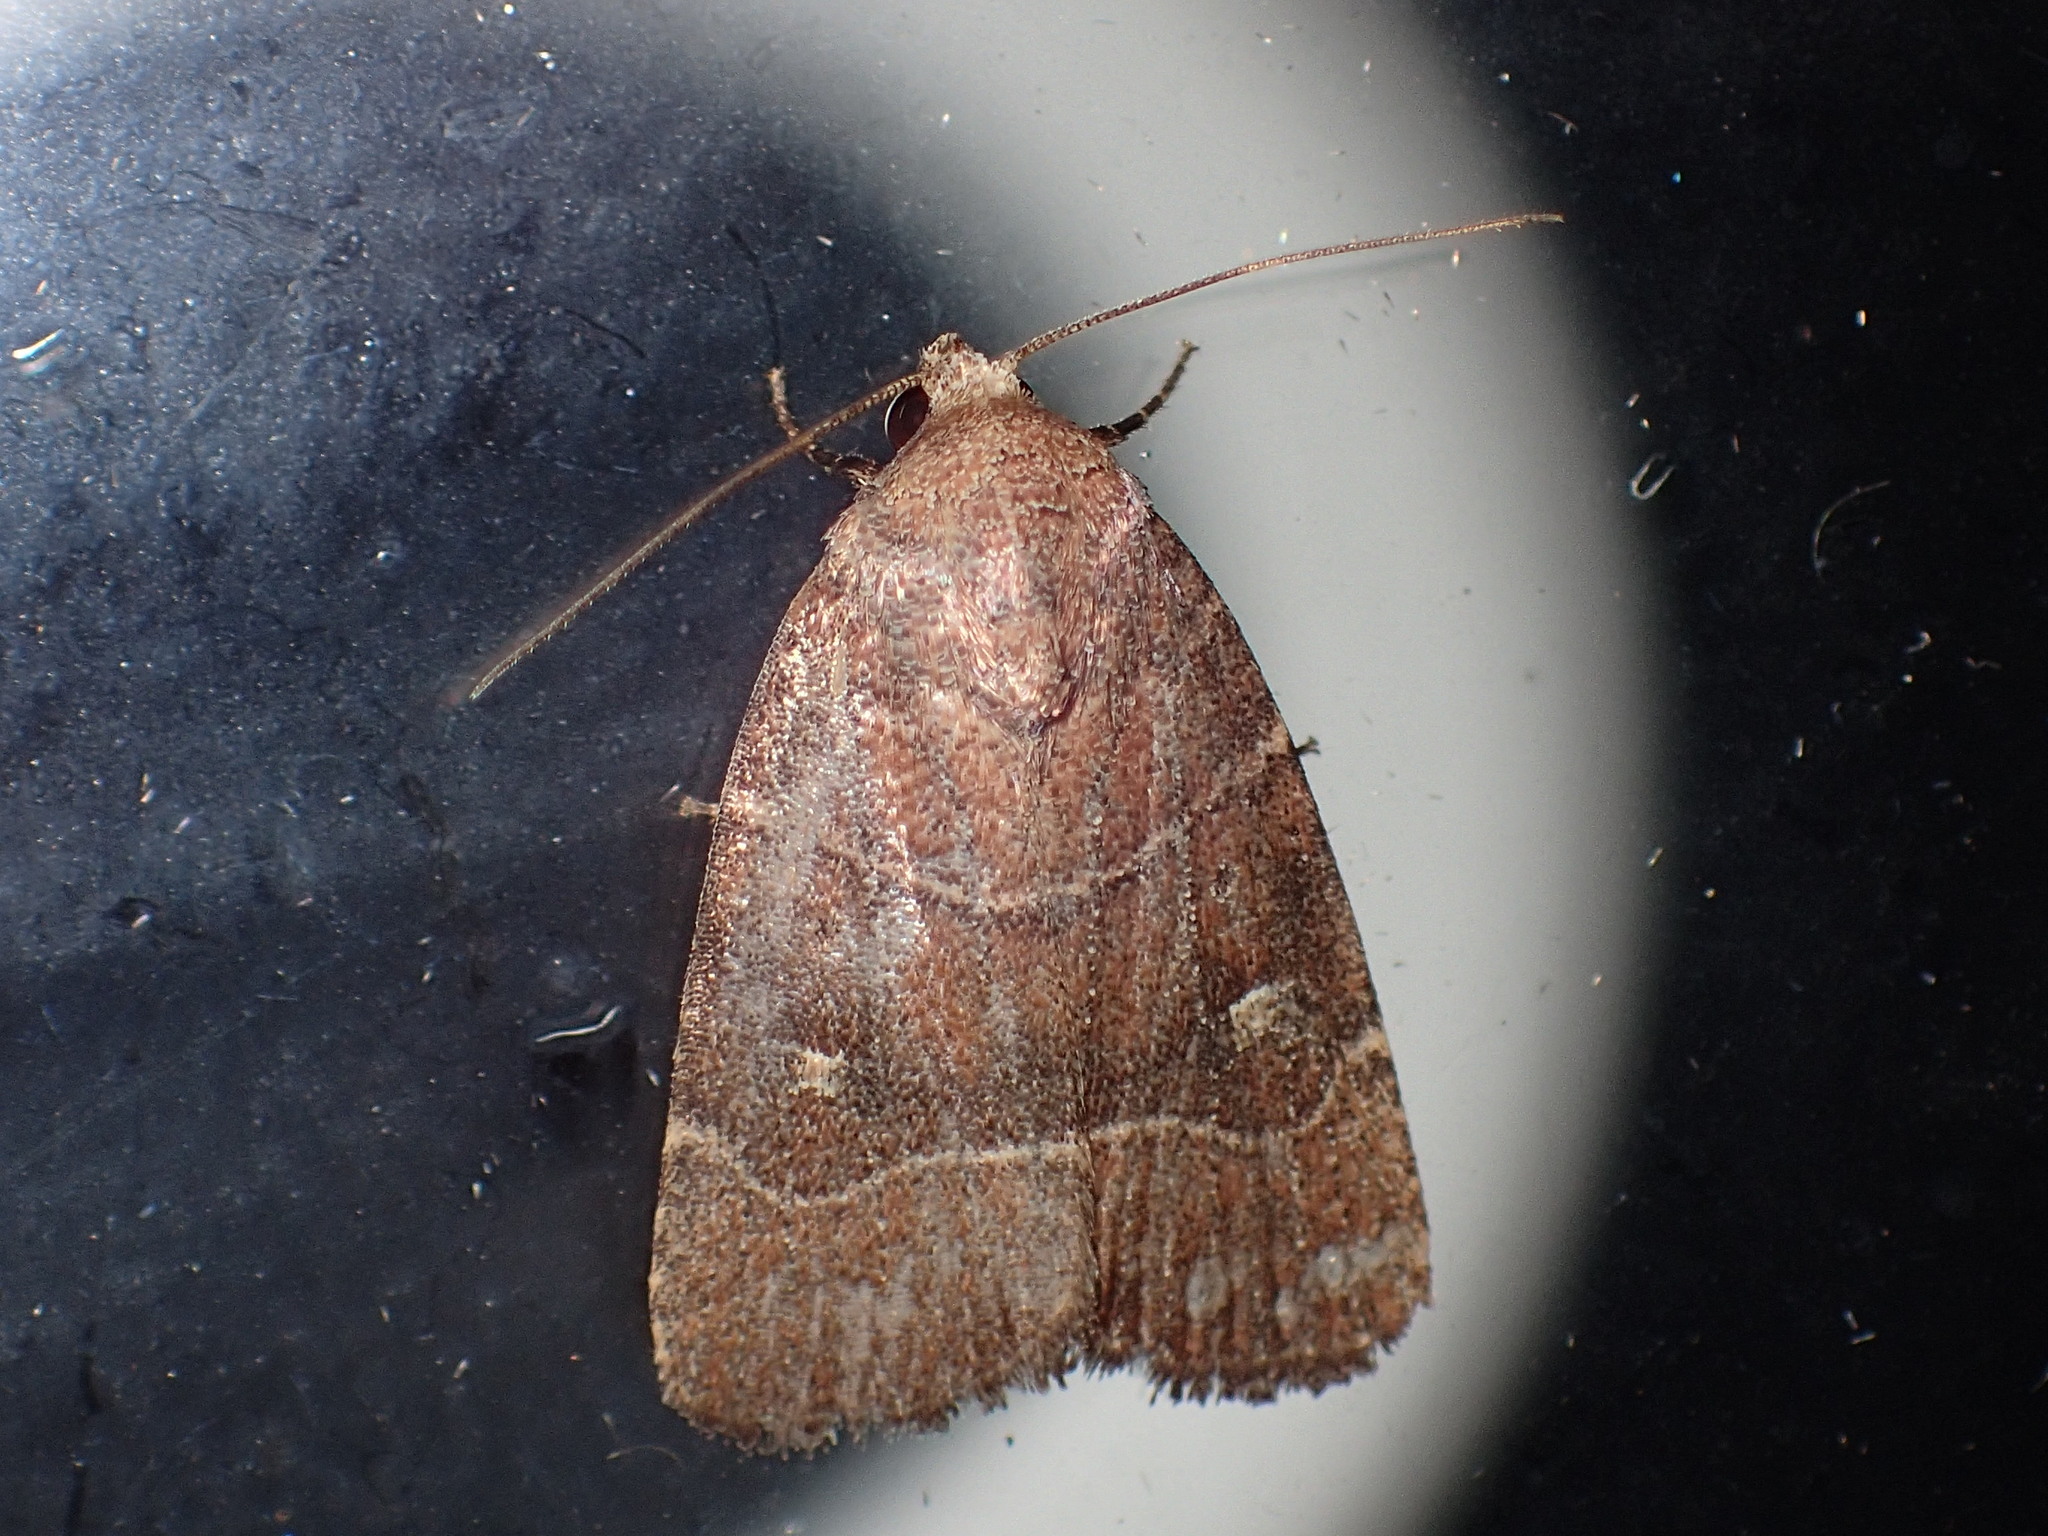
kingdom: Animalia
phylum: Arthropoda
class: Insecta
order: Lepidoptera
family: Noctuidae
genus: Elaphria
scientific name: Elaphria grata
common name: Grateful midget moth
